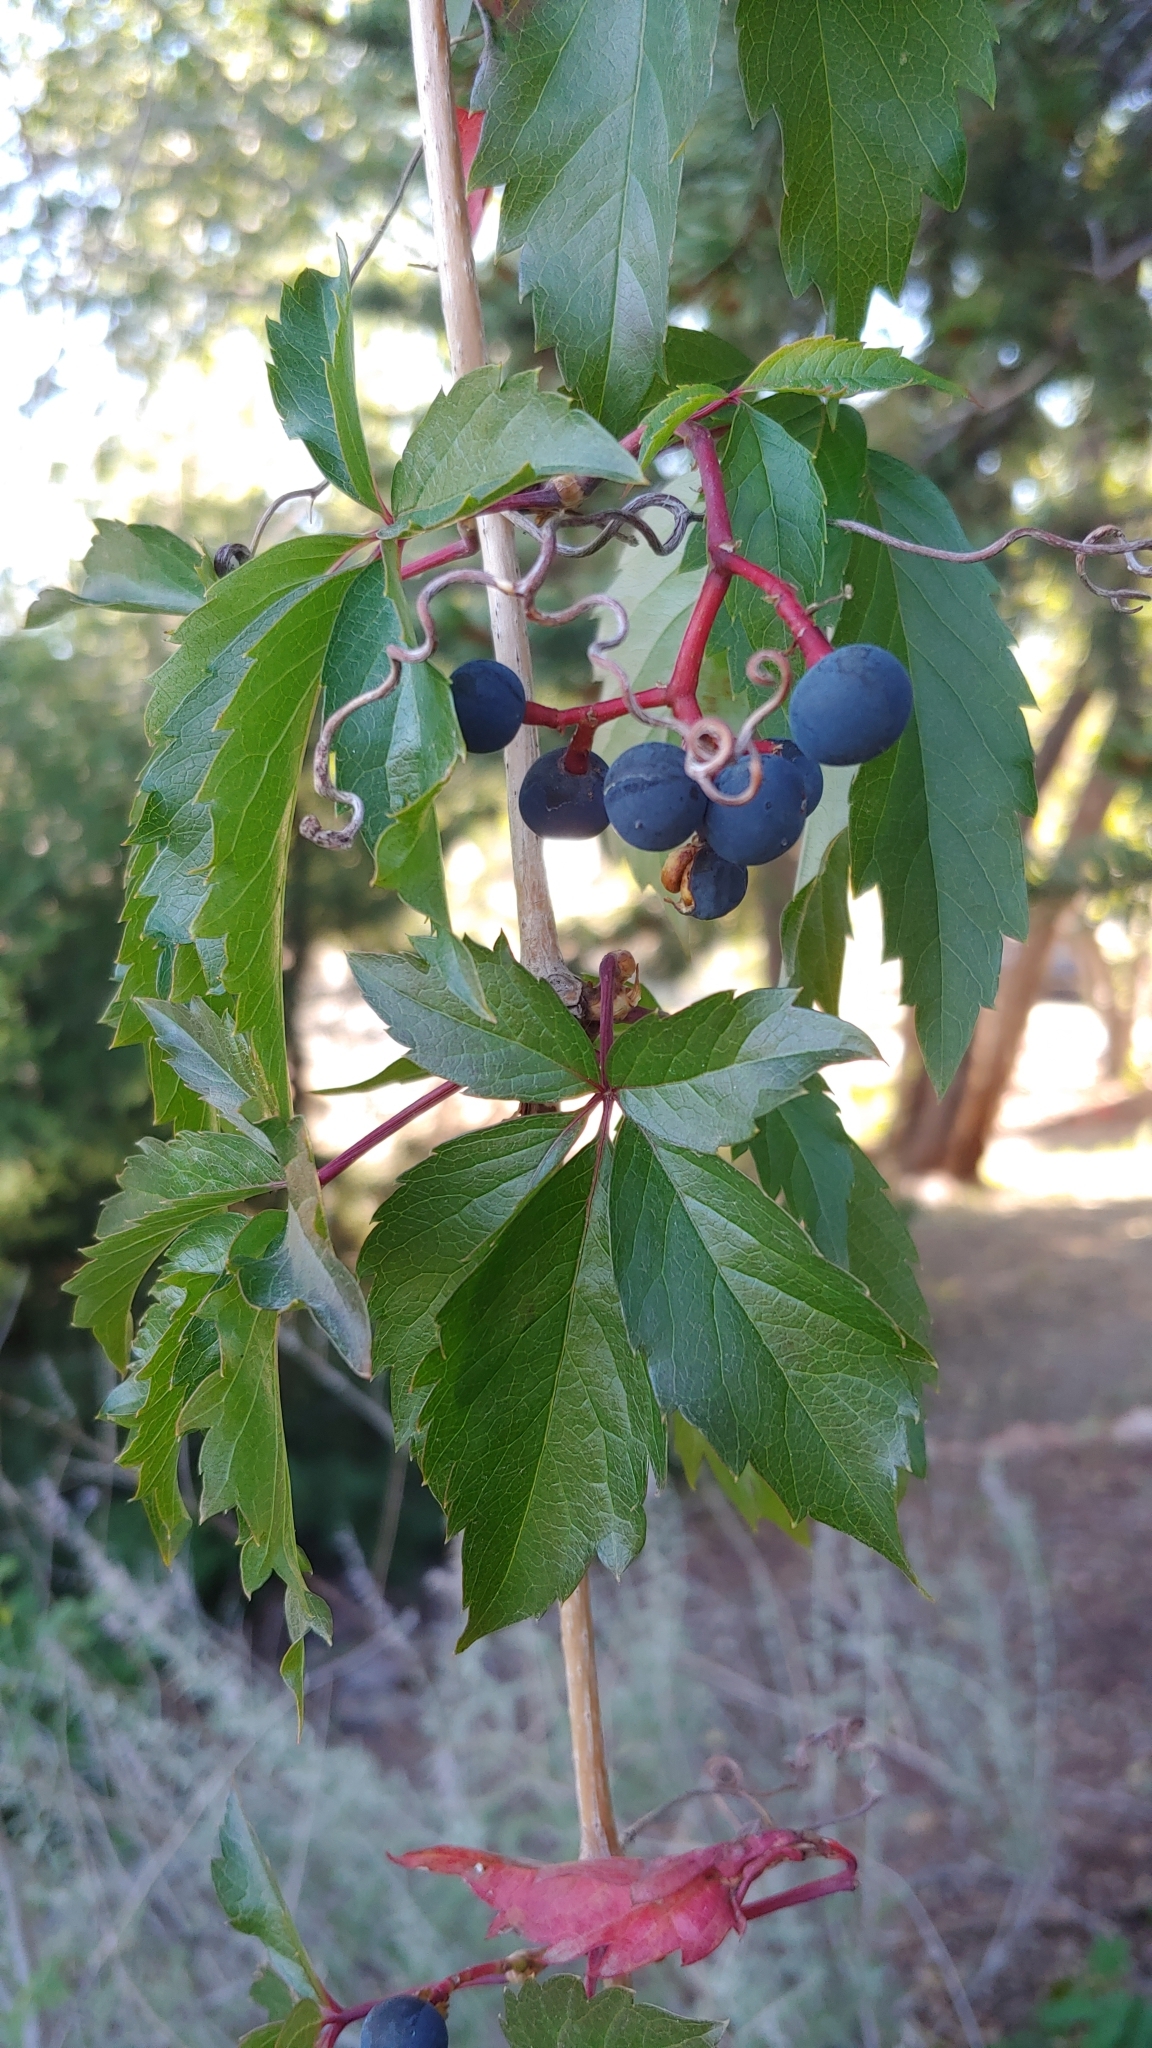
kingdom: Plantae
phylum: Tracheophyta
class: Magnoliopsida
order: Vitales
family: Vitaceae
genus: Parthenocissus
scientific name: Parthenocissus quinquefolia
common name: Virginia-creeper
